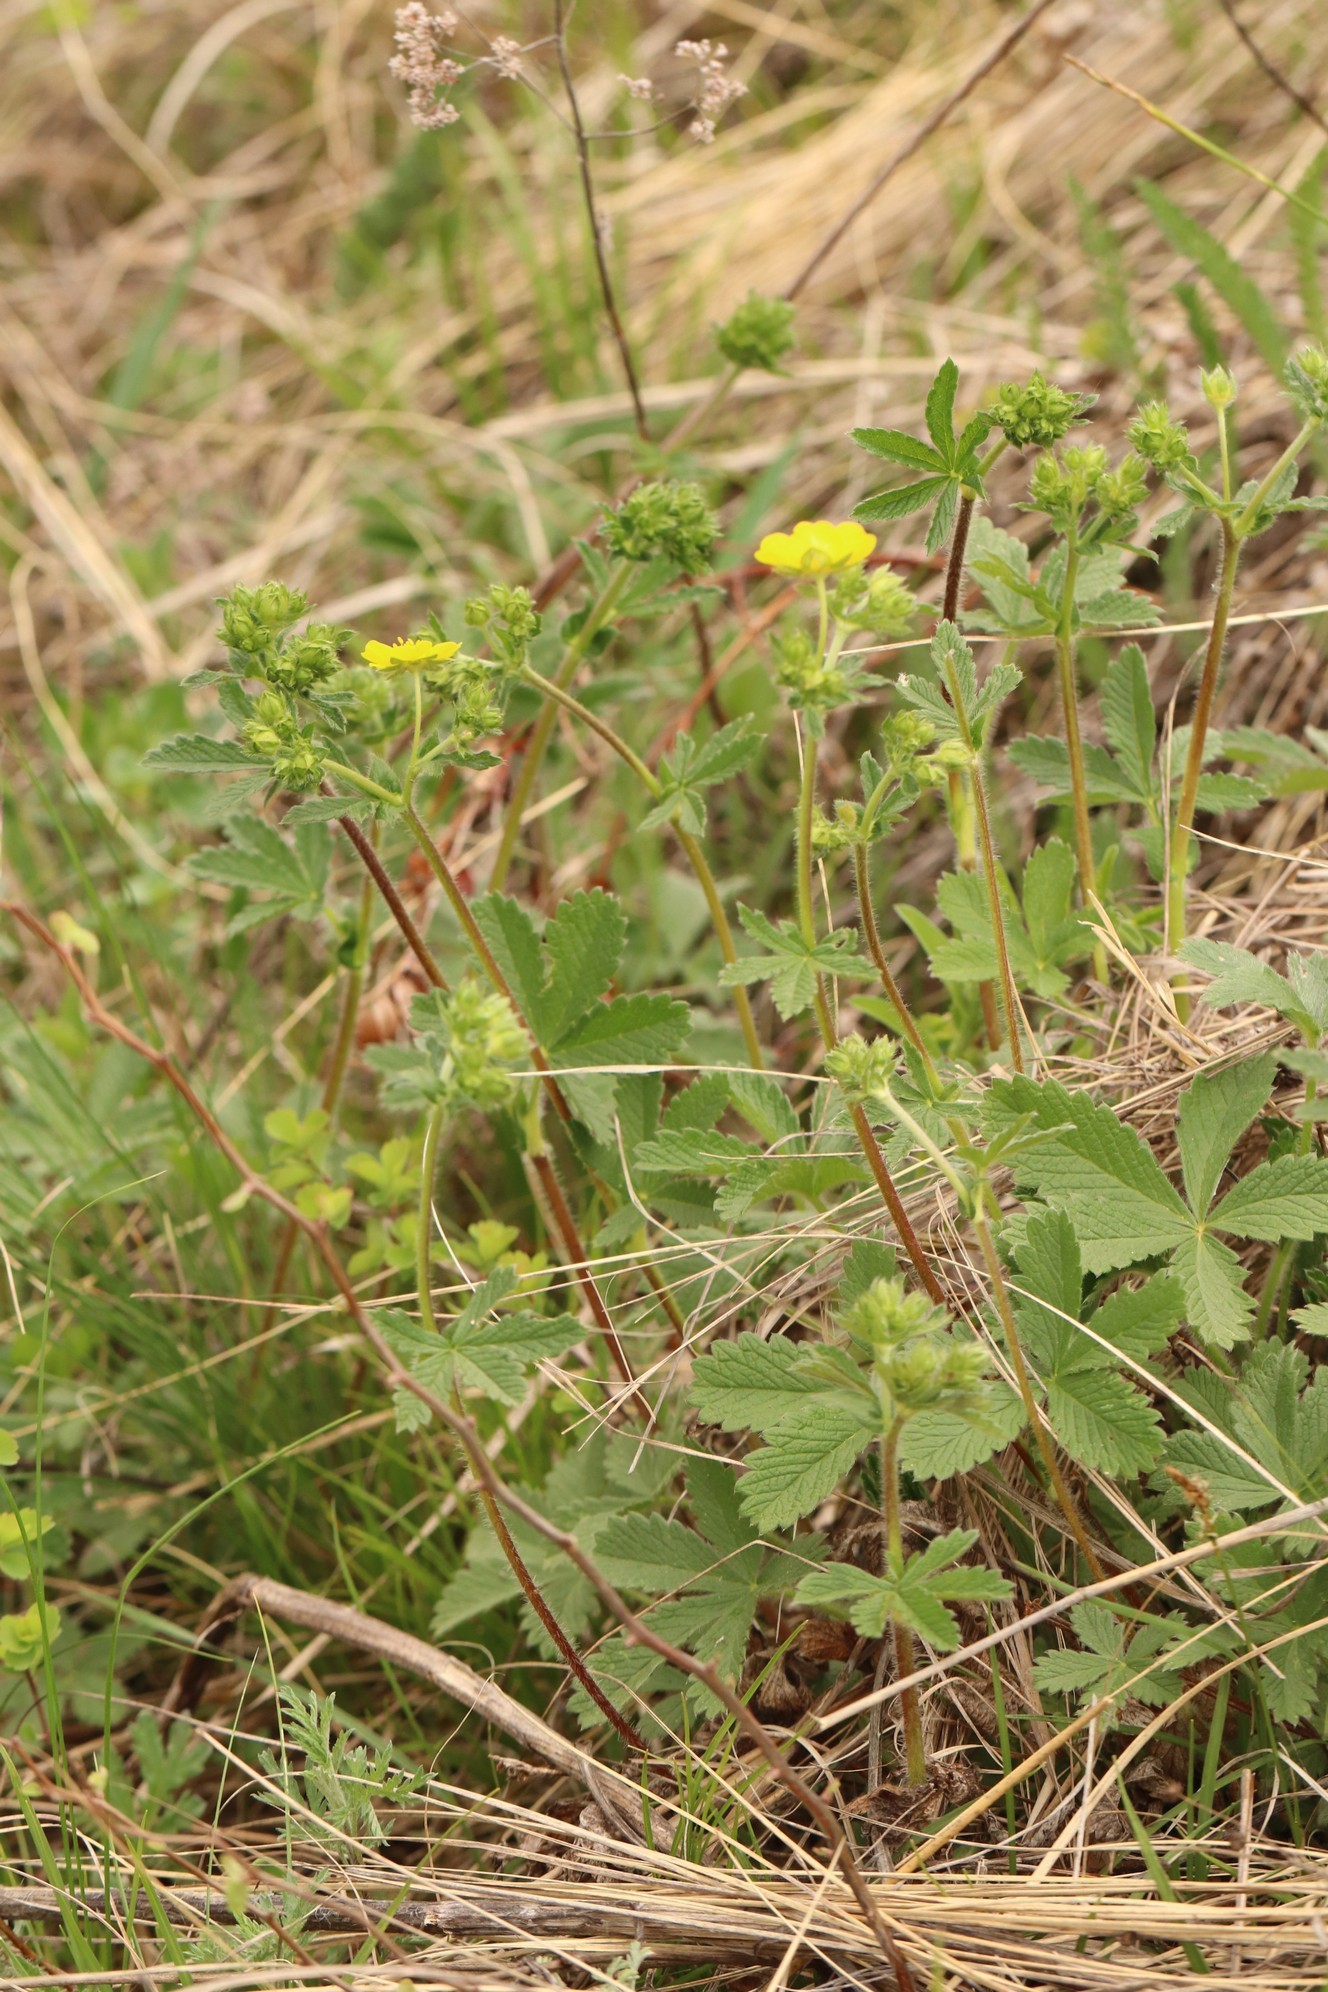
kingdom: Plantae
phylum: Tracheophyta
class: Magnoliopsida
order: Rosales
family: Rosaceae
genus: Potentilla
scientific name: Potentilla chrysantha
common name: Thuringian cinquefoil
